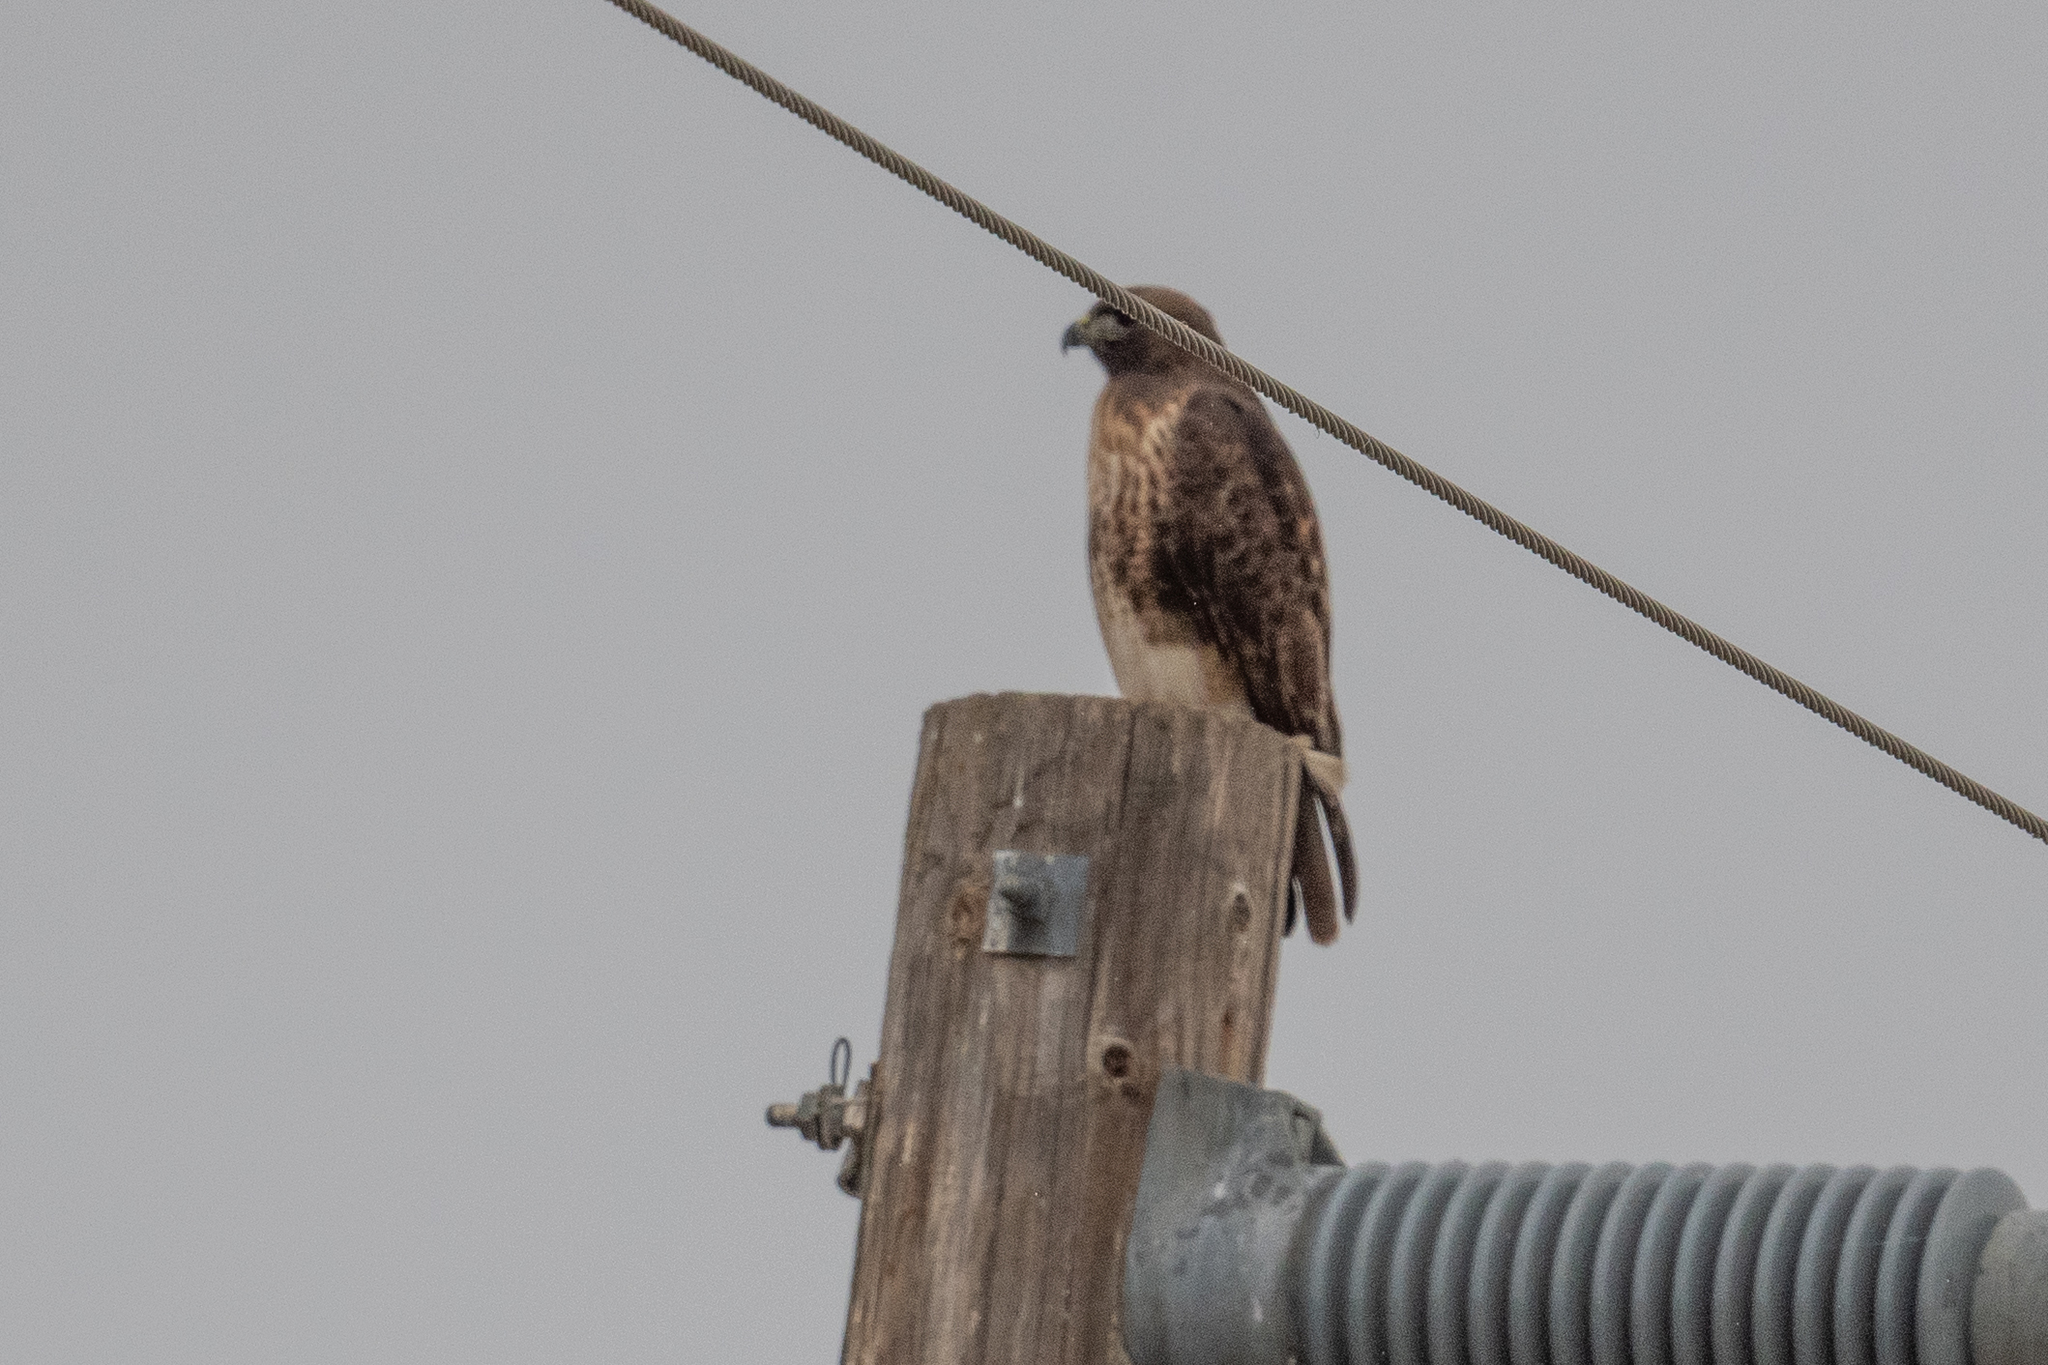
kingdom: Animalia
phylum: Chordata
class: Aves
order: Accipitriformes
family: Accipitridae
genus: Buteo
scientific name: Buteo jamaicensis
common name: Red-tailed hawk
